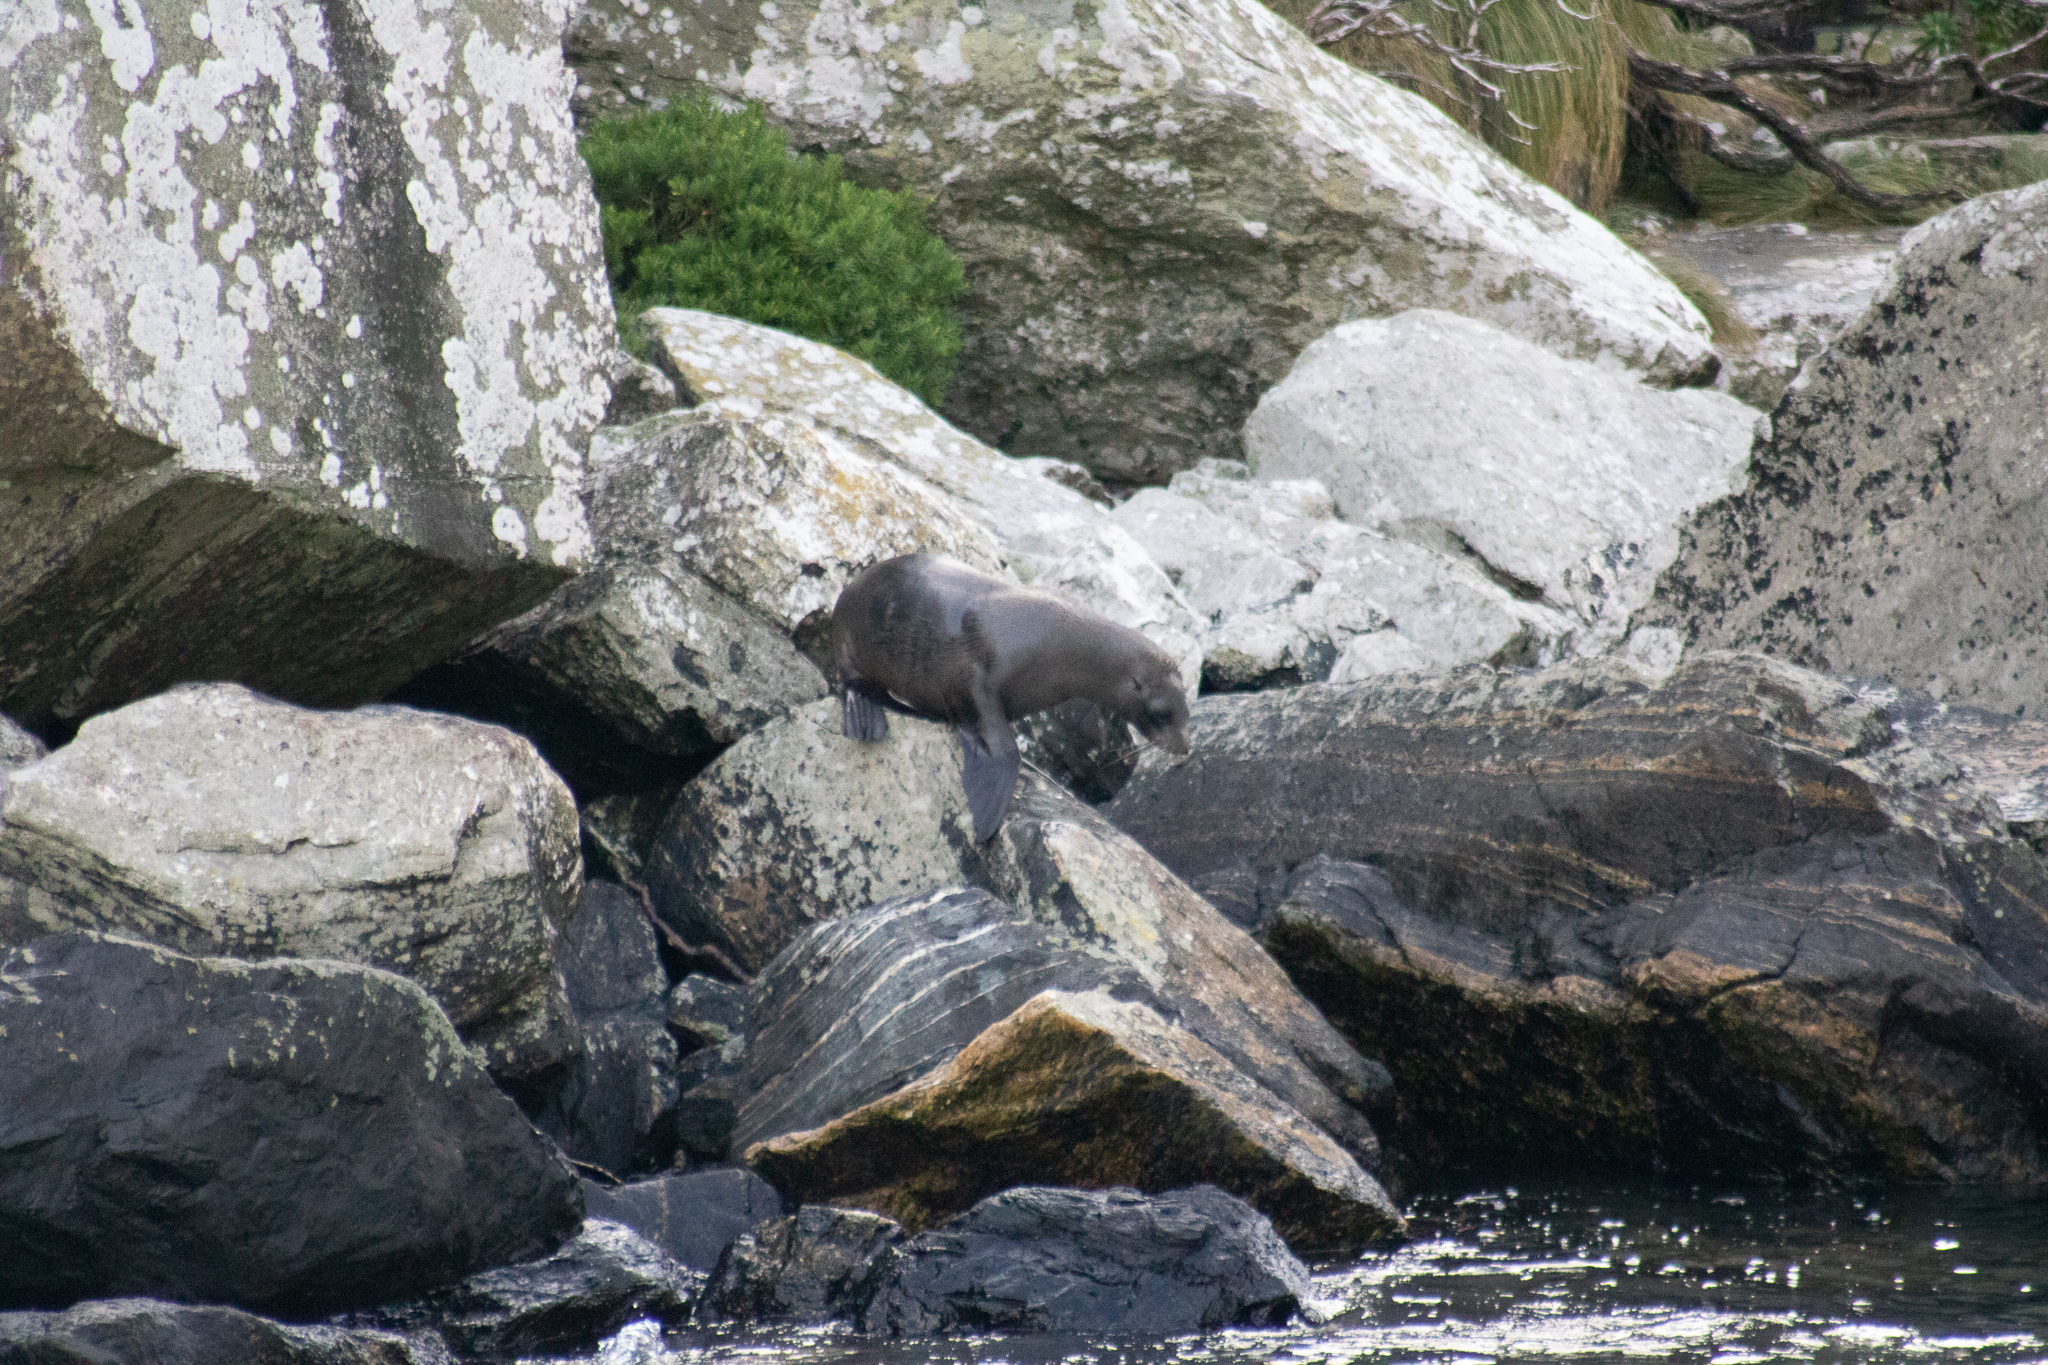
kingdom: Animalia
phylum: Chordata
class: Mammalia
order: Carnivora
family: Otariidae
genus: Arctocephalus
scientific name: Arctocephalus forsteri
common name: New zealand fur seal
